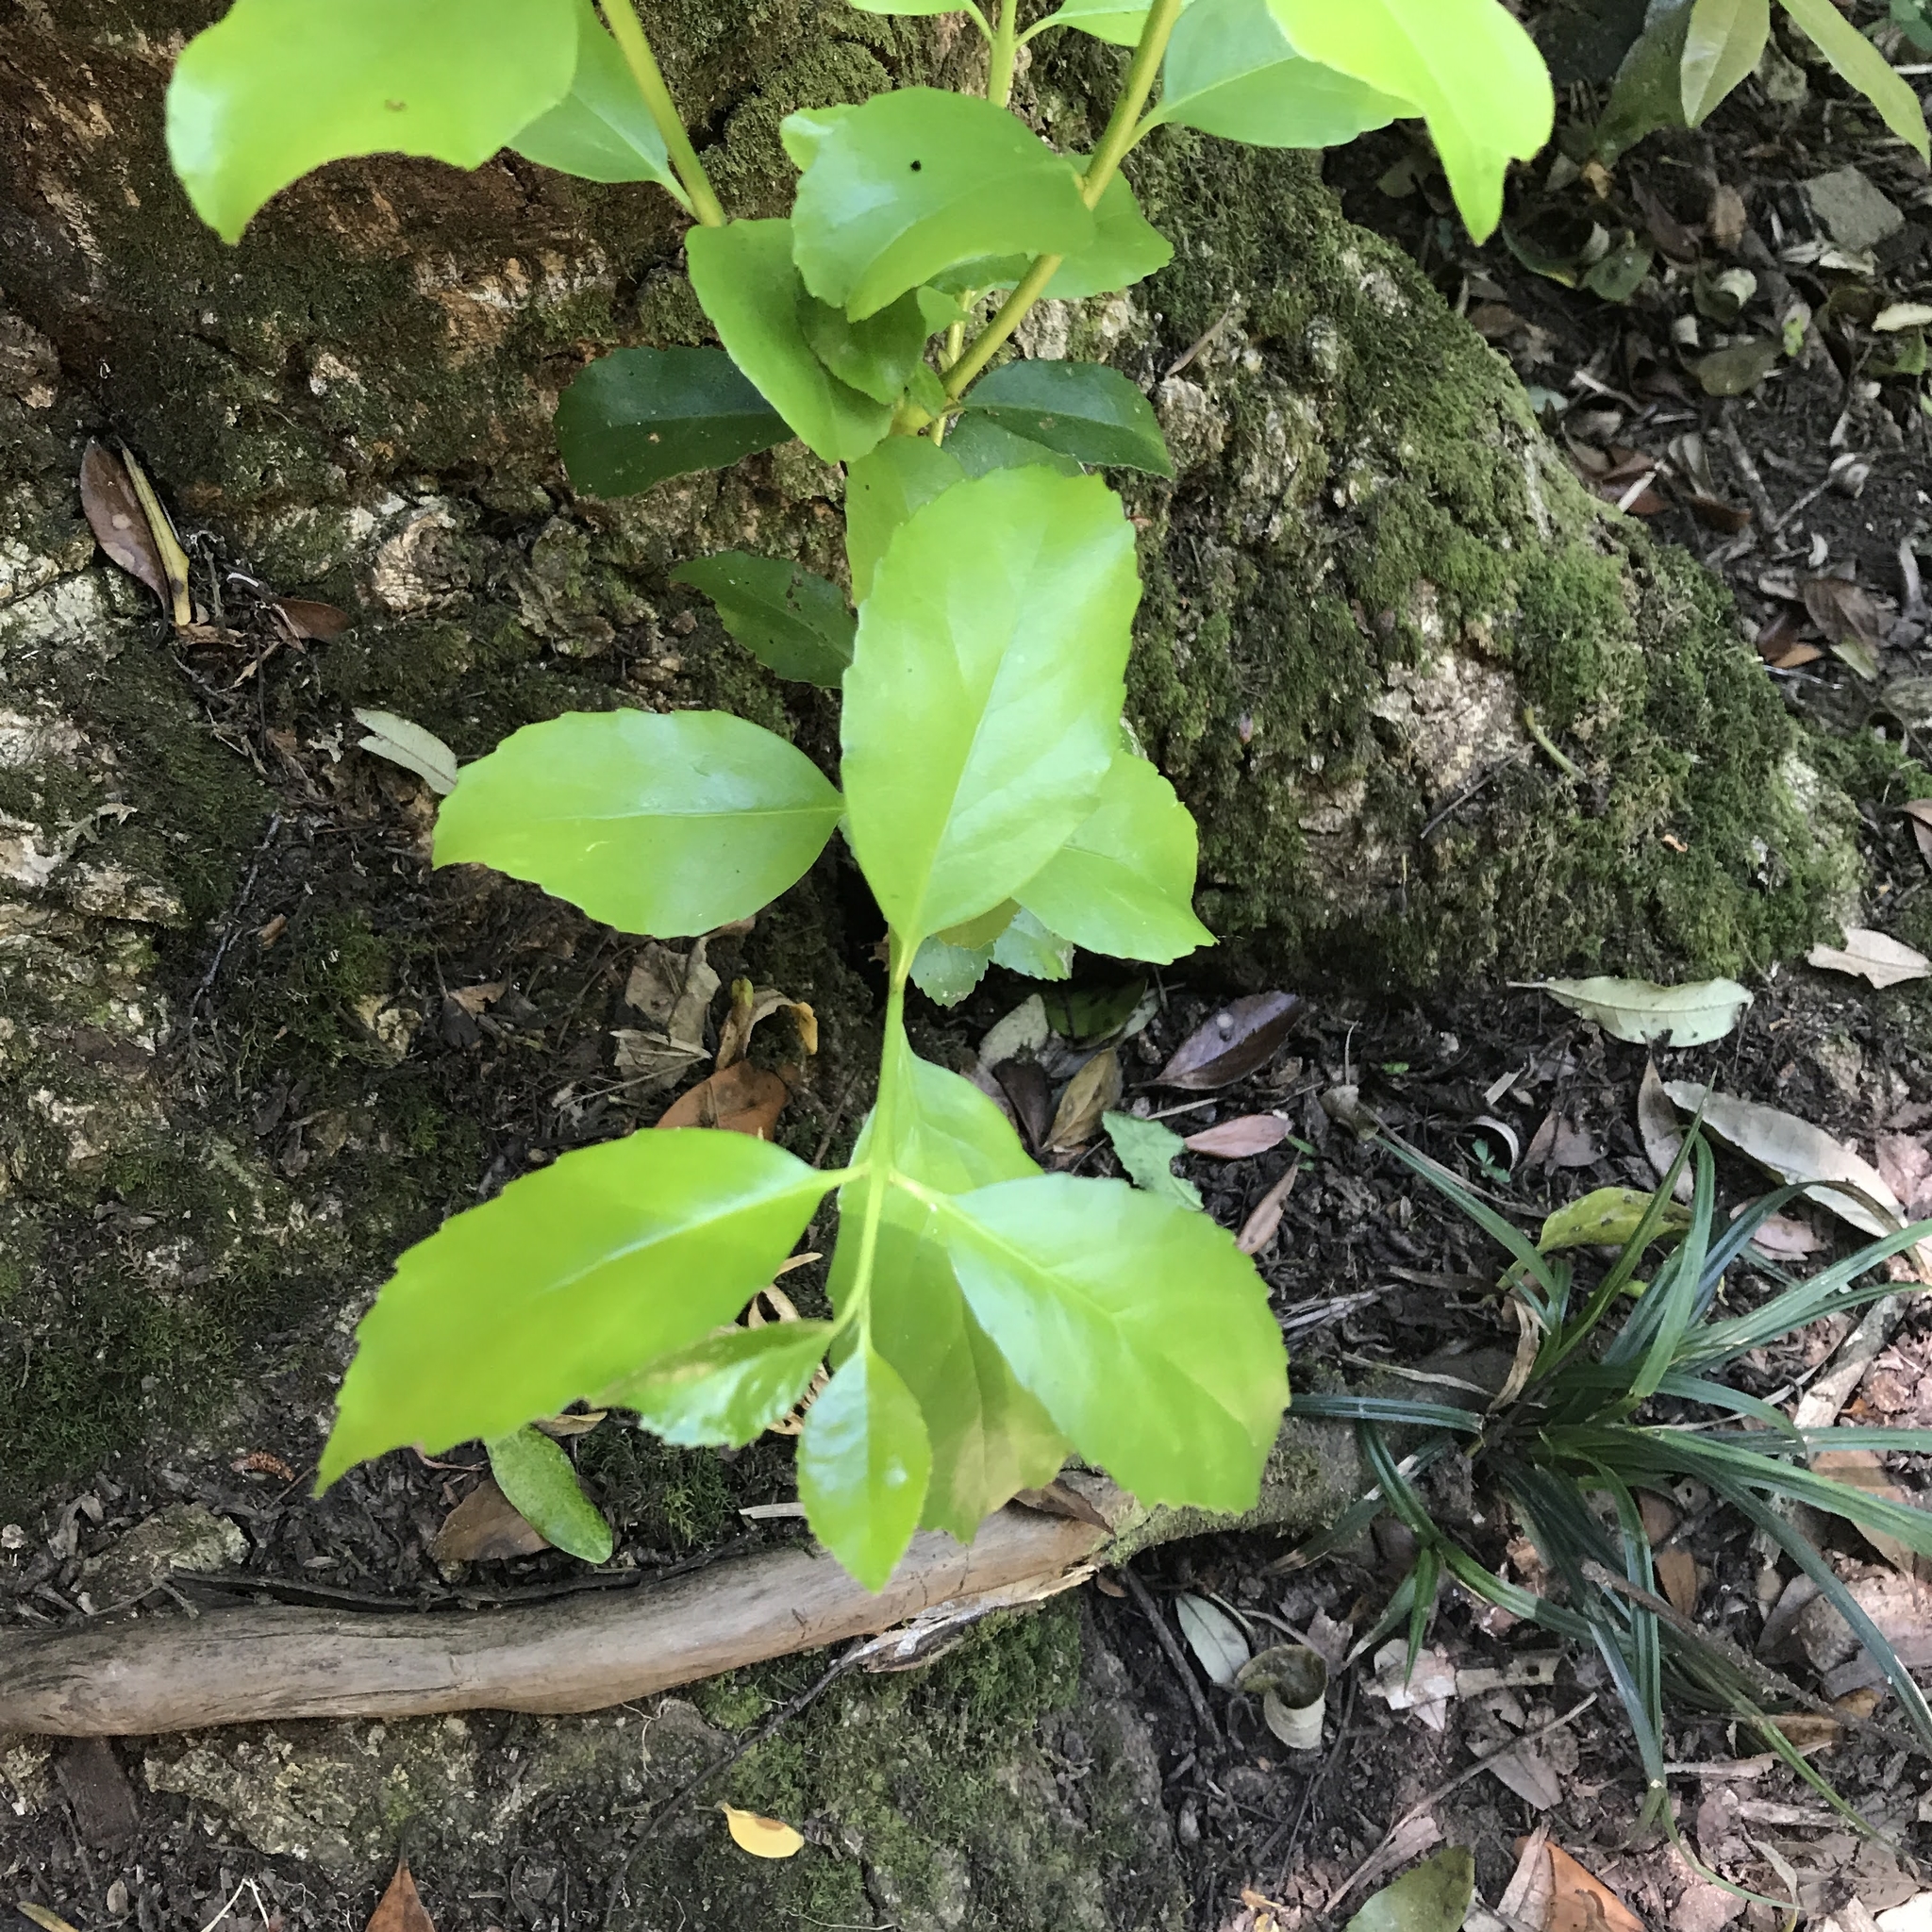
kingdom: Plantae
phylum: Tracheophyta
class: Magnoliopsida
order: Laurales
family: Atherospermataceae
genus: Laurelia
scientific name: Laurelia sempervirens
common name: Chilean laurel
